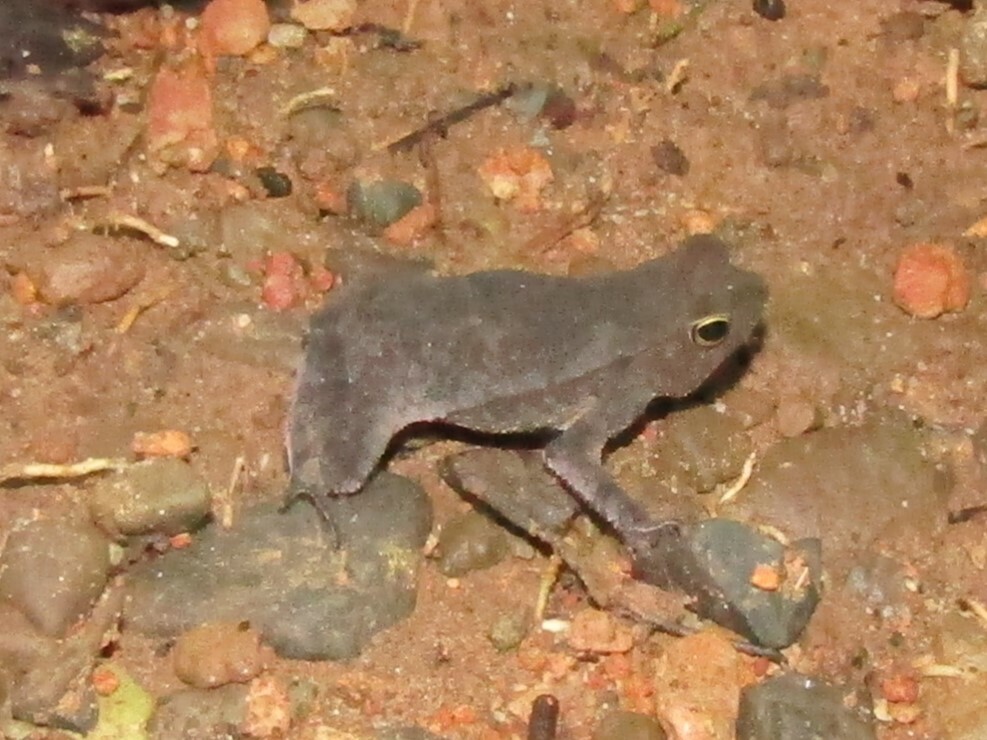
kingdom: Animalia
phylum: Chordata
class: Amphibia
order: Anura
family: Bufonidae
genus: Rhinella
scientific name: Rhinella alata
